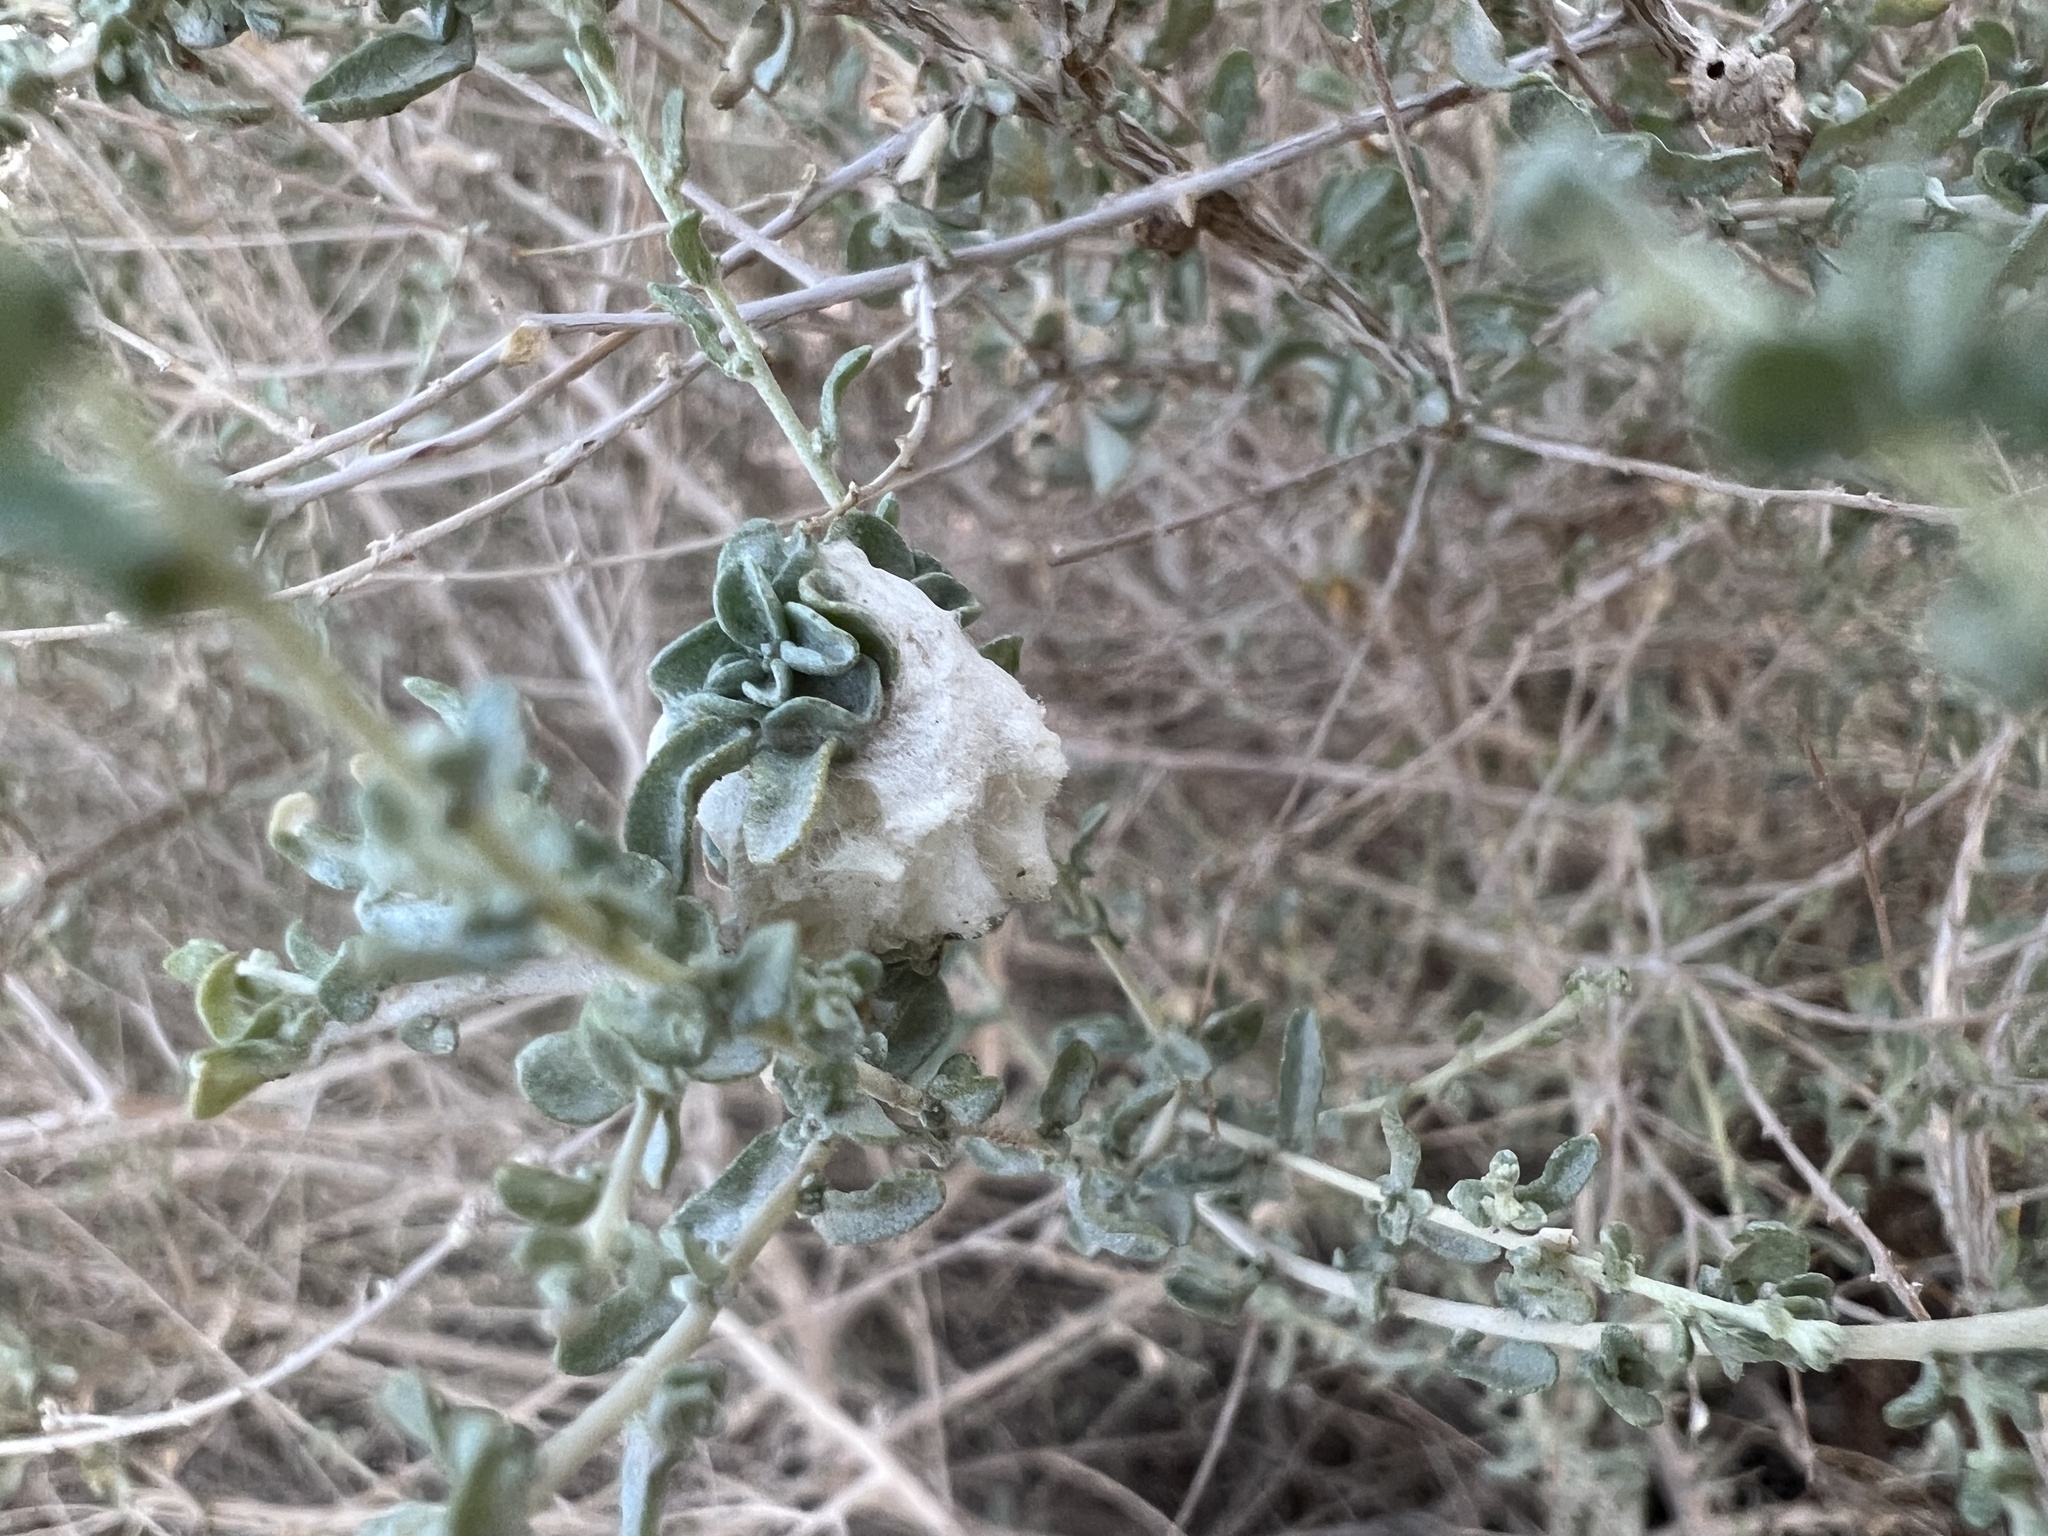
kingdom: Animalia
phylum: Arthropoda
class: Insecta
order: Diptera
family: Cecidomyiidae
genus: Asphondylia
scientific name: Asphondylia floccosa
